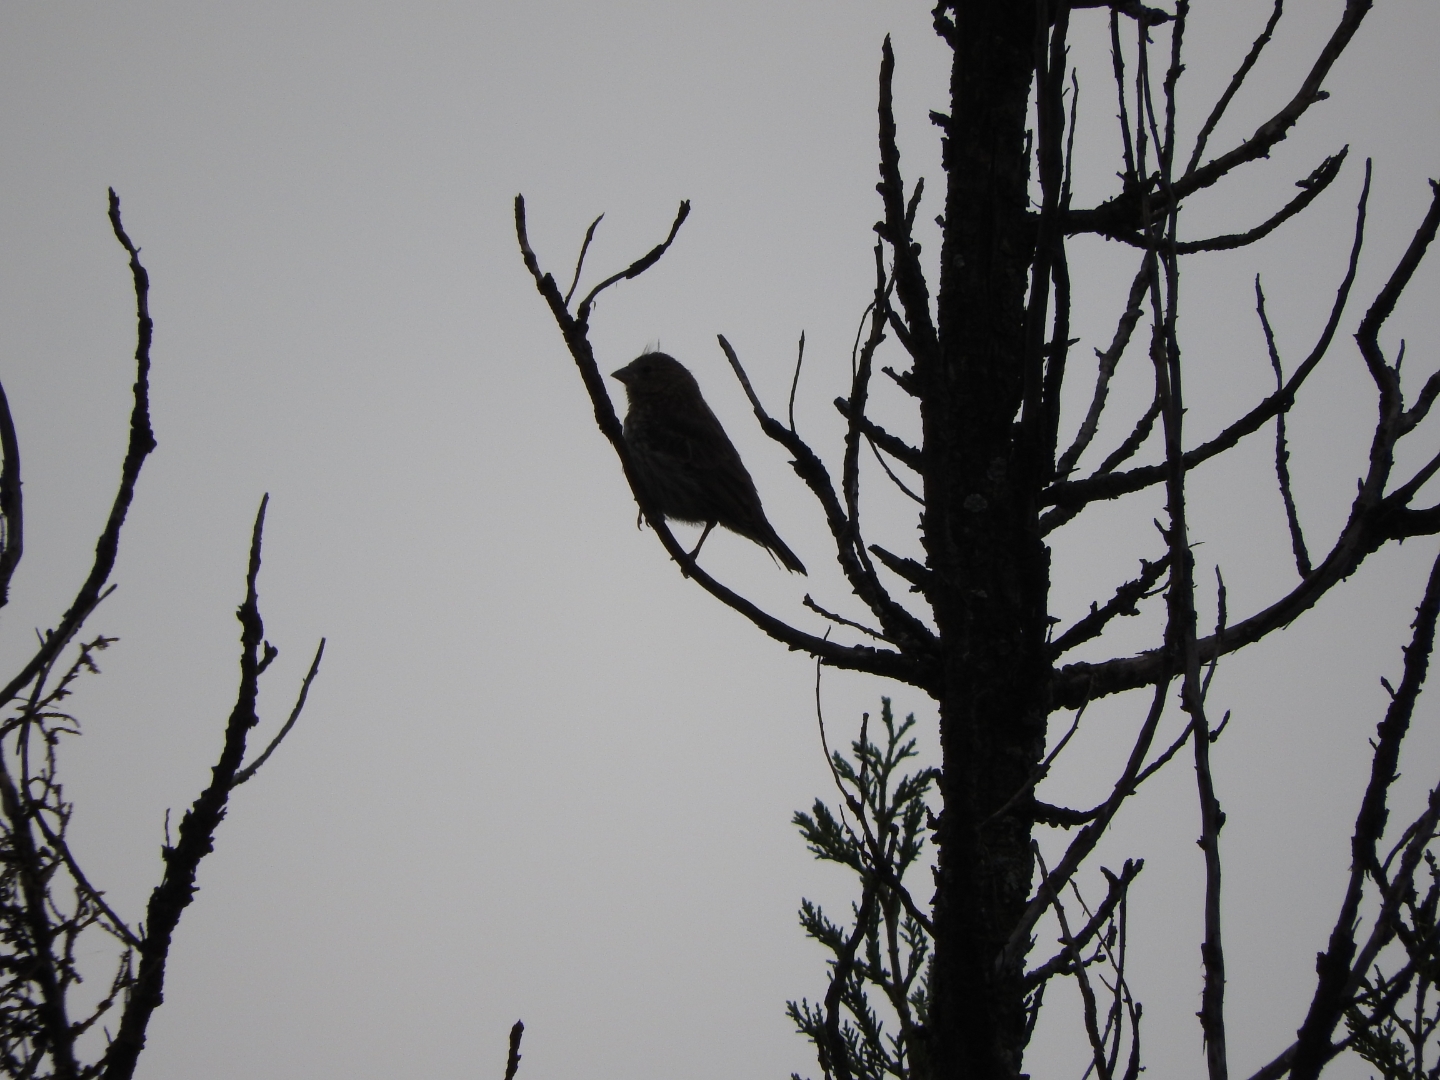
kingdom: Animalia
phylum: Chordata
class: Aves
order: Passeriformes
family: Fringillidae
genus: Haemorhous
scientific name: Haemorhous mexicanus
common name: House finch
